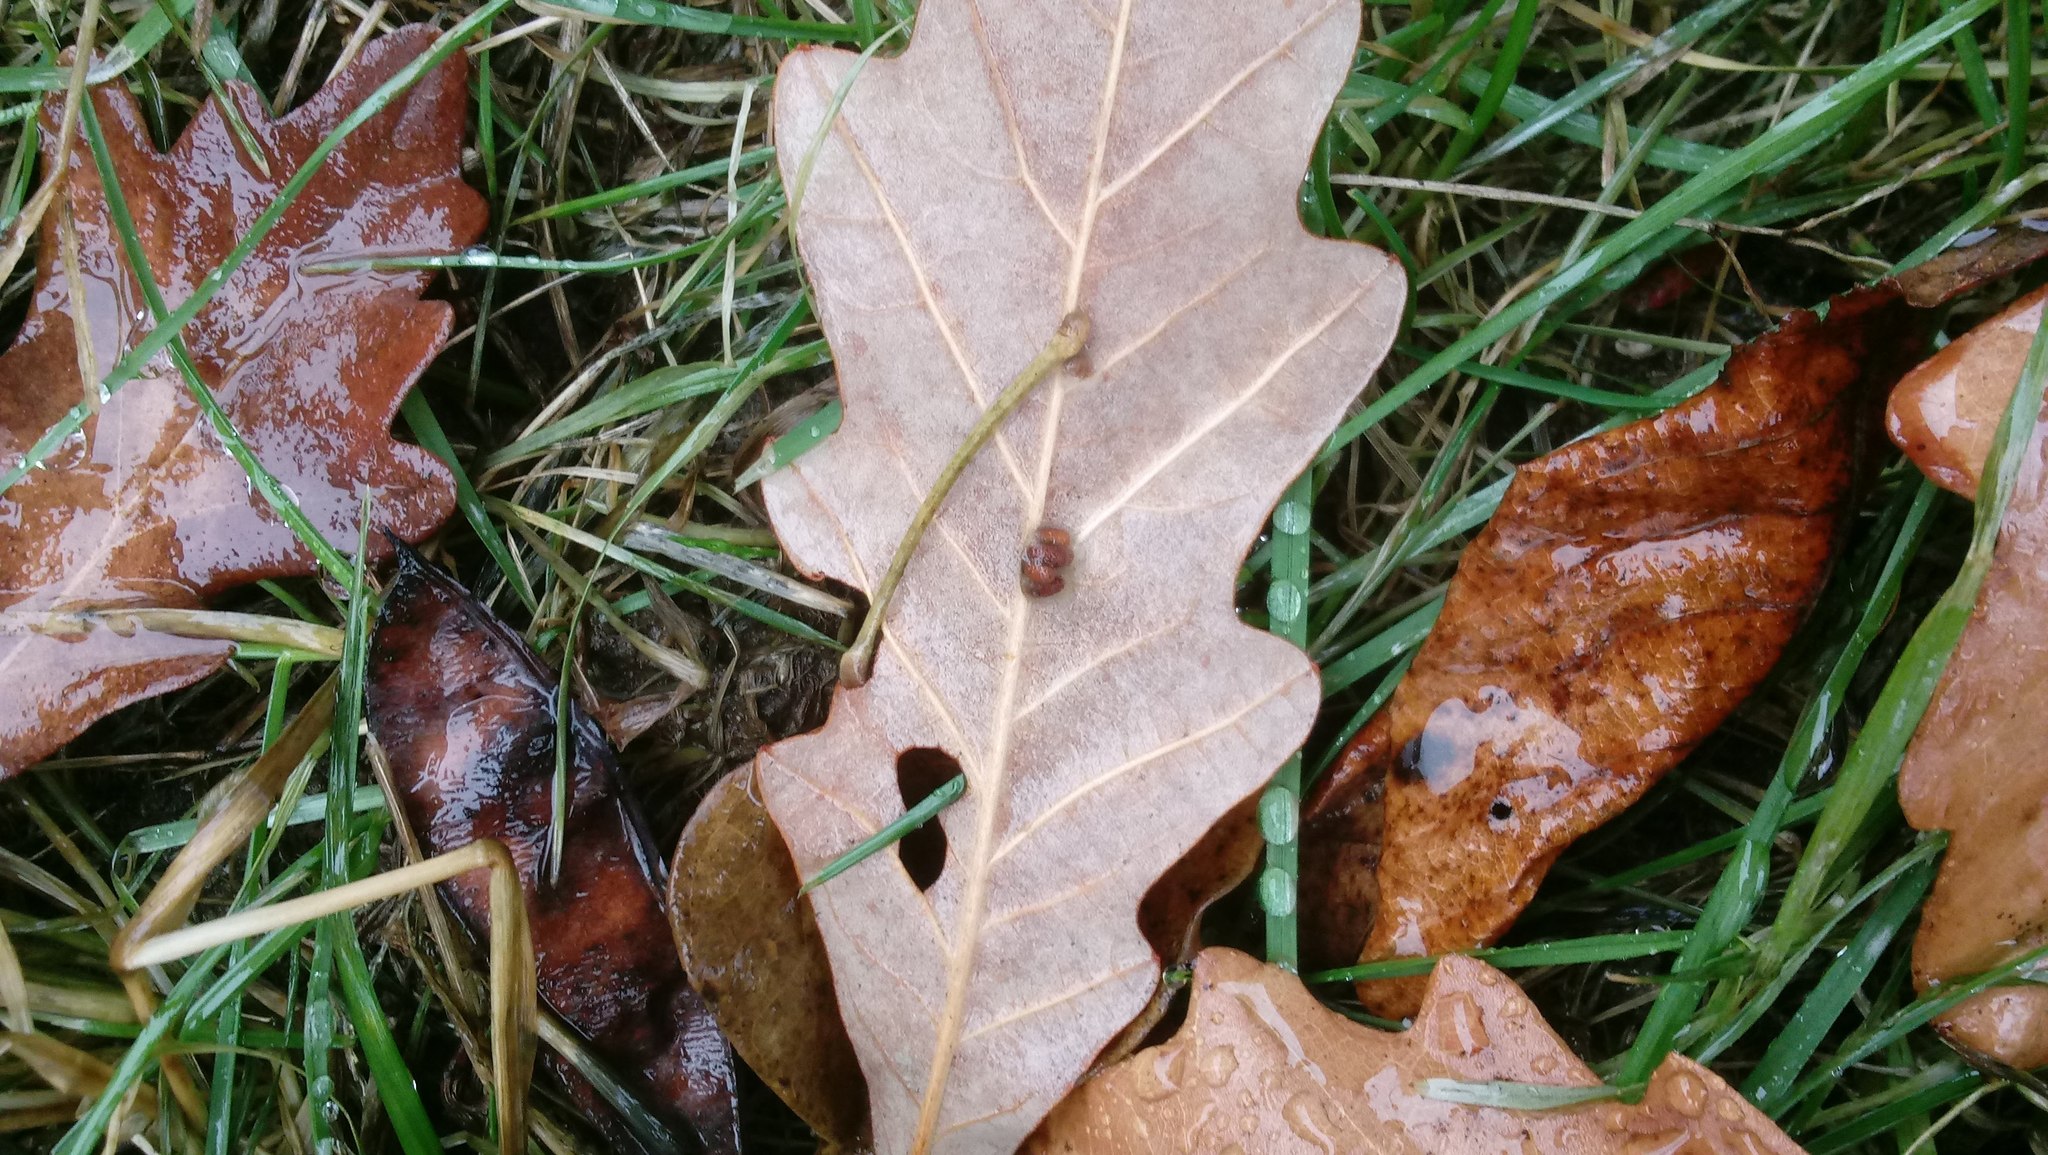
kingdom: Animalia
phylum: Arthropoda
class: Insecta
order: Hymenoptera
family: Cynipidae
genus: Andricus
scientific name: Andricus Druon ignotum
